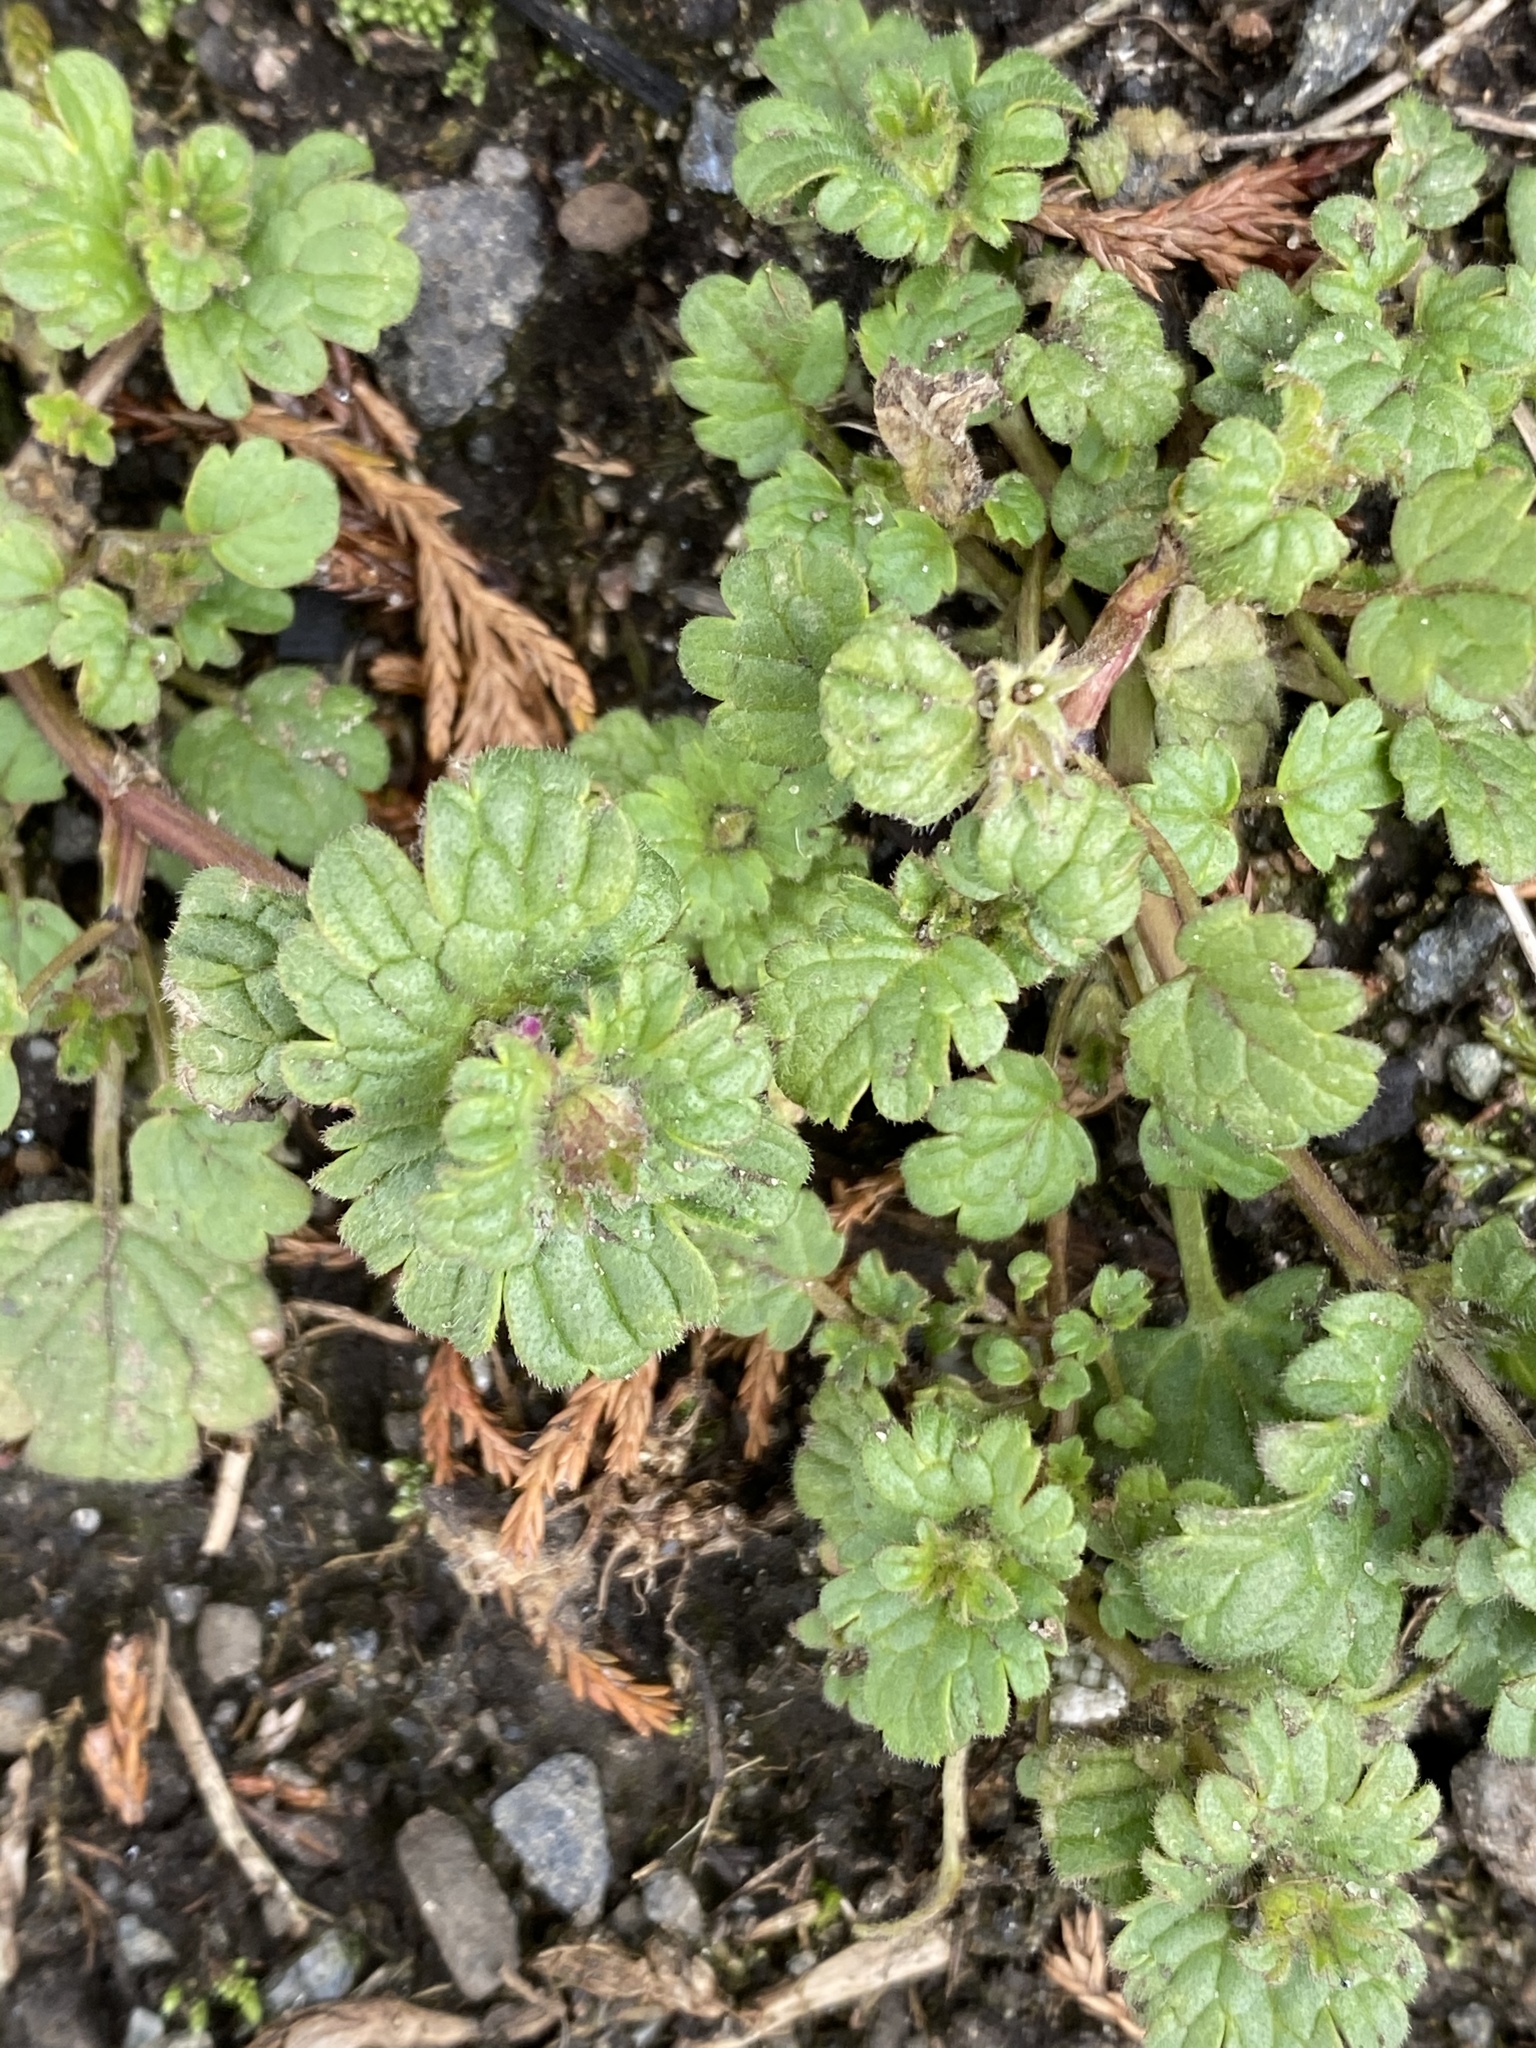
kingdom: Plantae
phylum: Tracheophyta
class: Magnoliopsida
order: Lamiales
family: Lamiaceae
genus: Lamium
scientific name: Lamium amplexicaule
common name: Henbit dead-nettle
